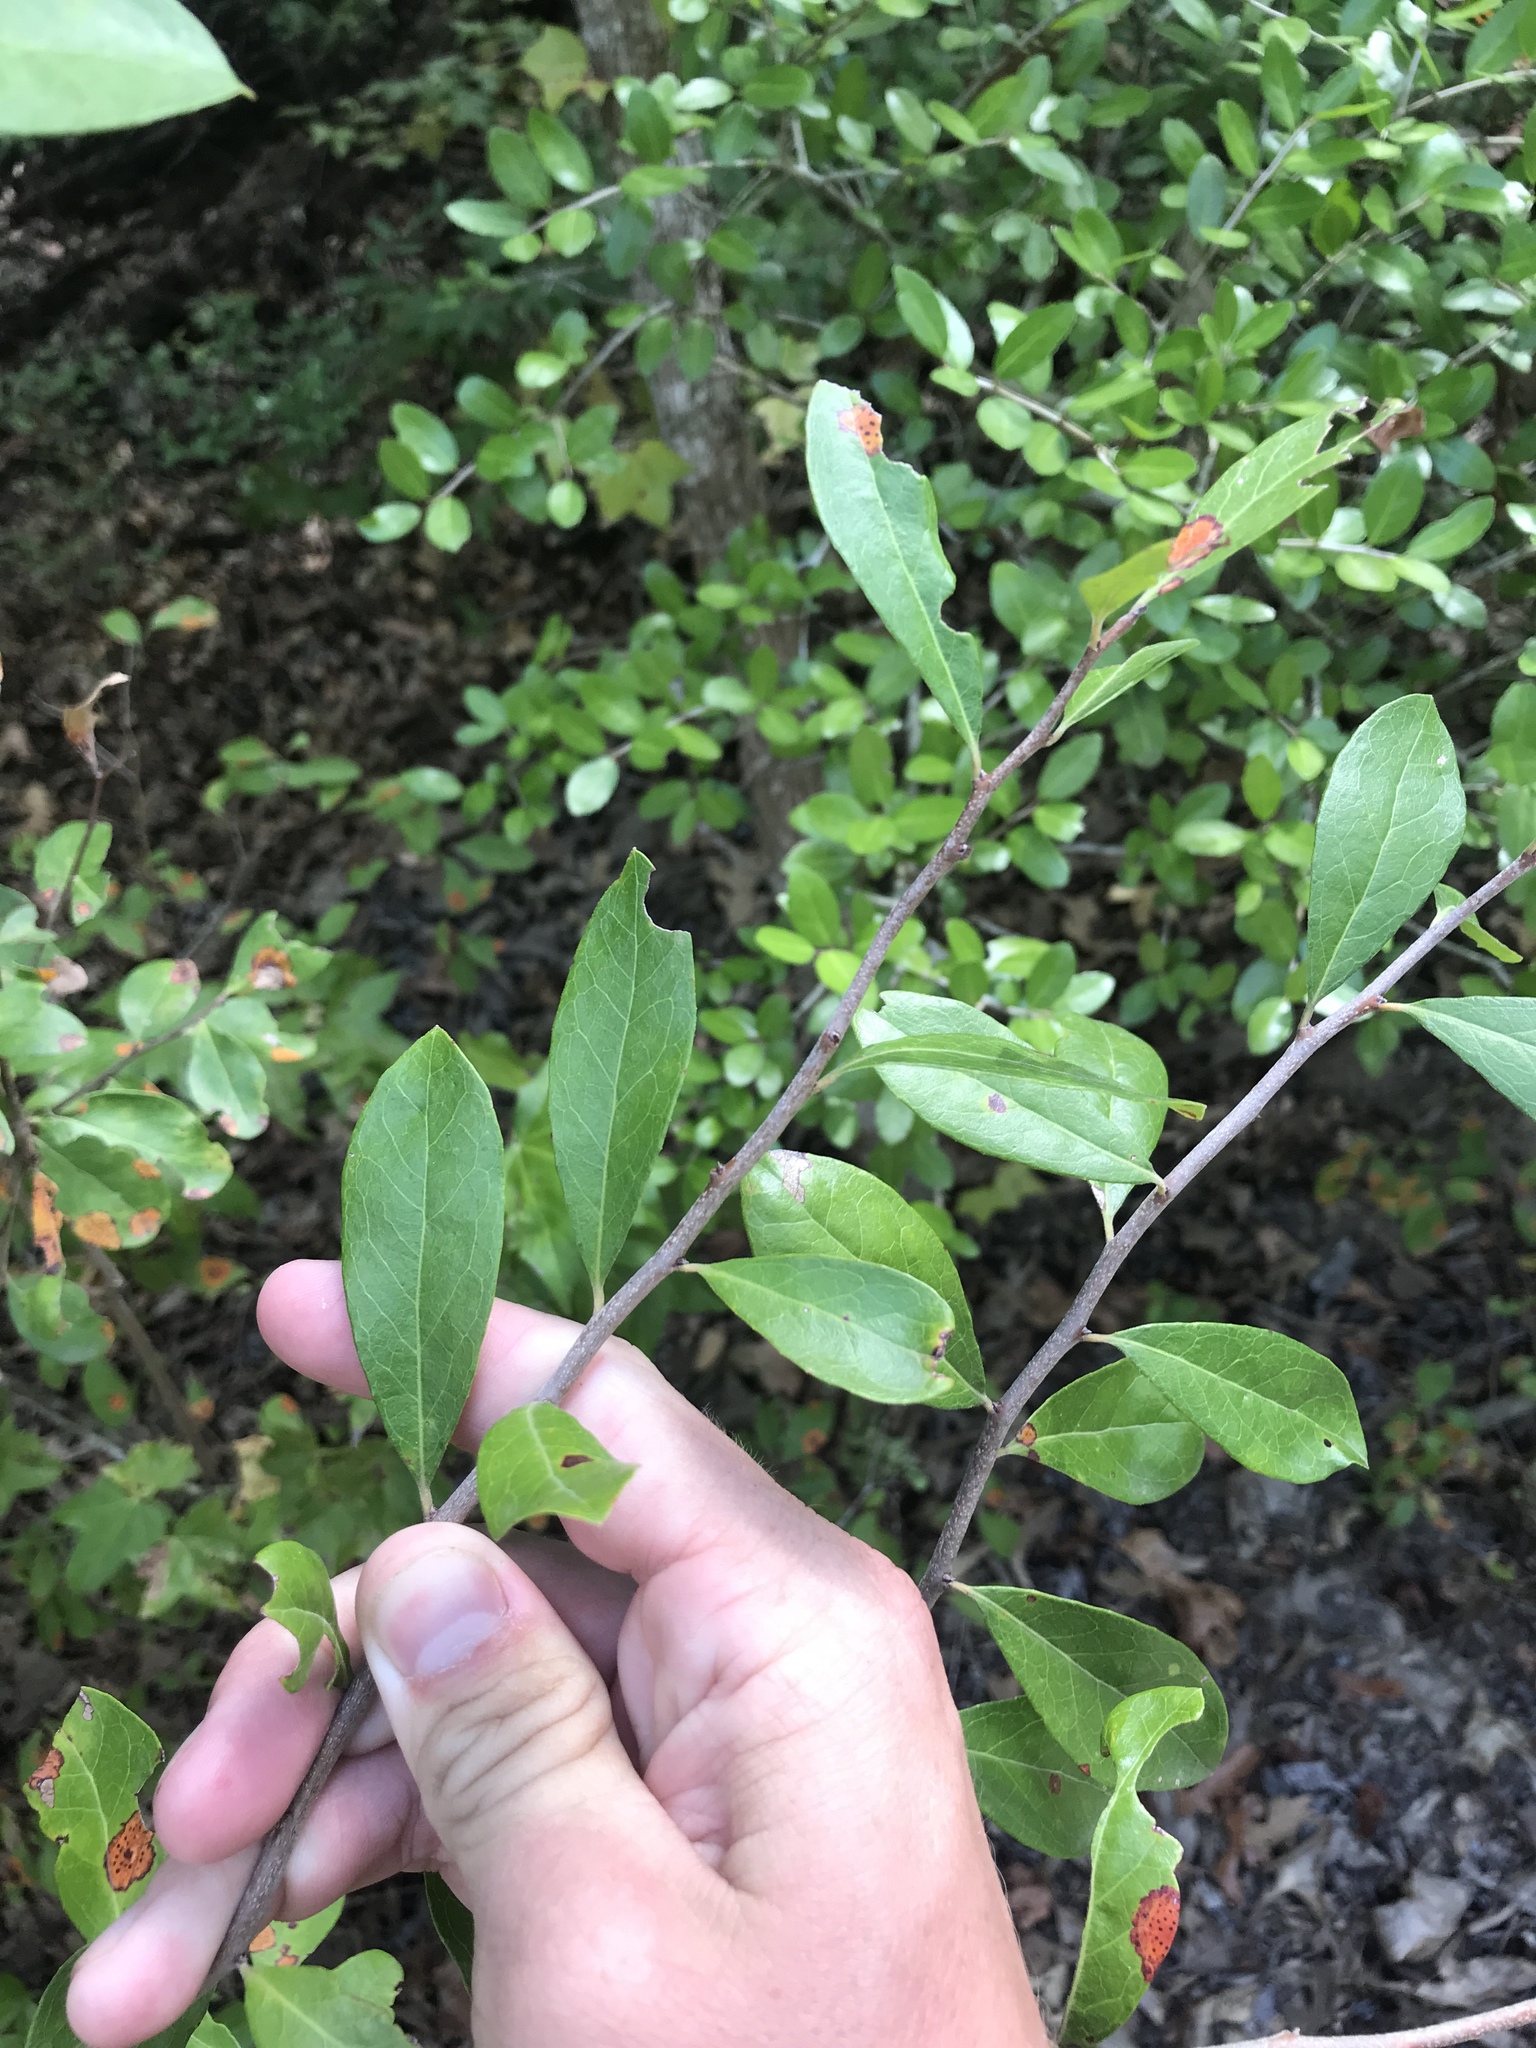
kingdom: Plantae
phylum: Tracheophyta
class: Magnoliopsida
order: Ericales
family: Sapotaceae
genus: Sideroxylon
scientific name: Sideroxylon lanuginosum
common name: Chittamwood
